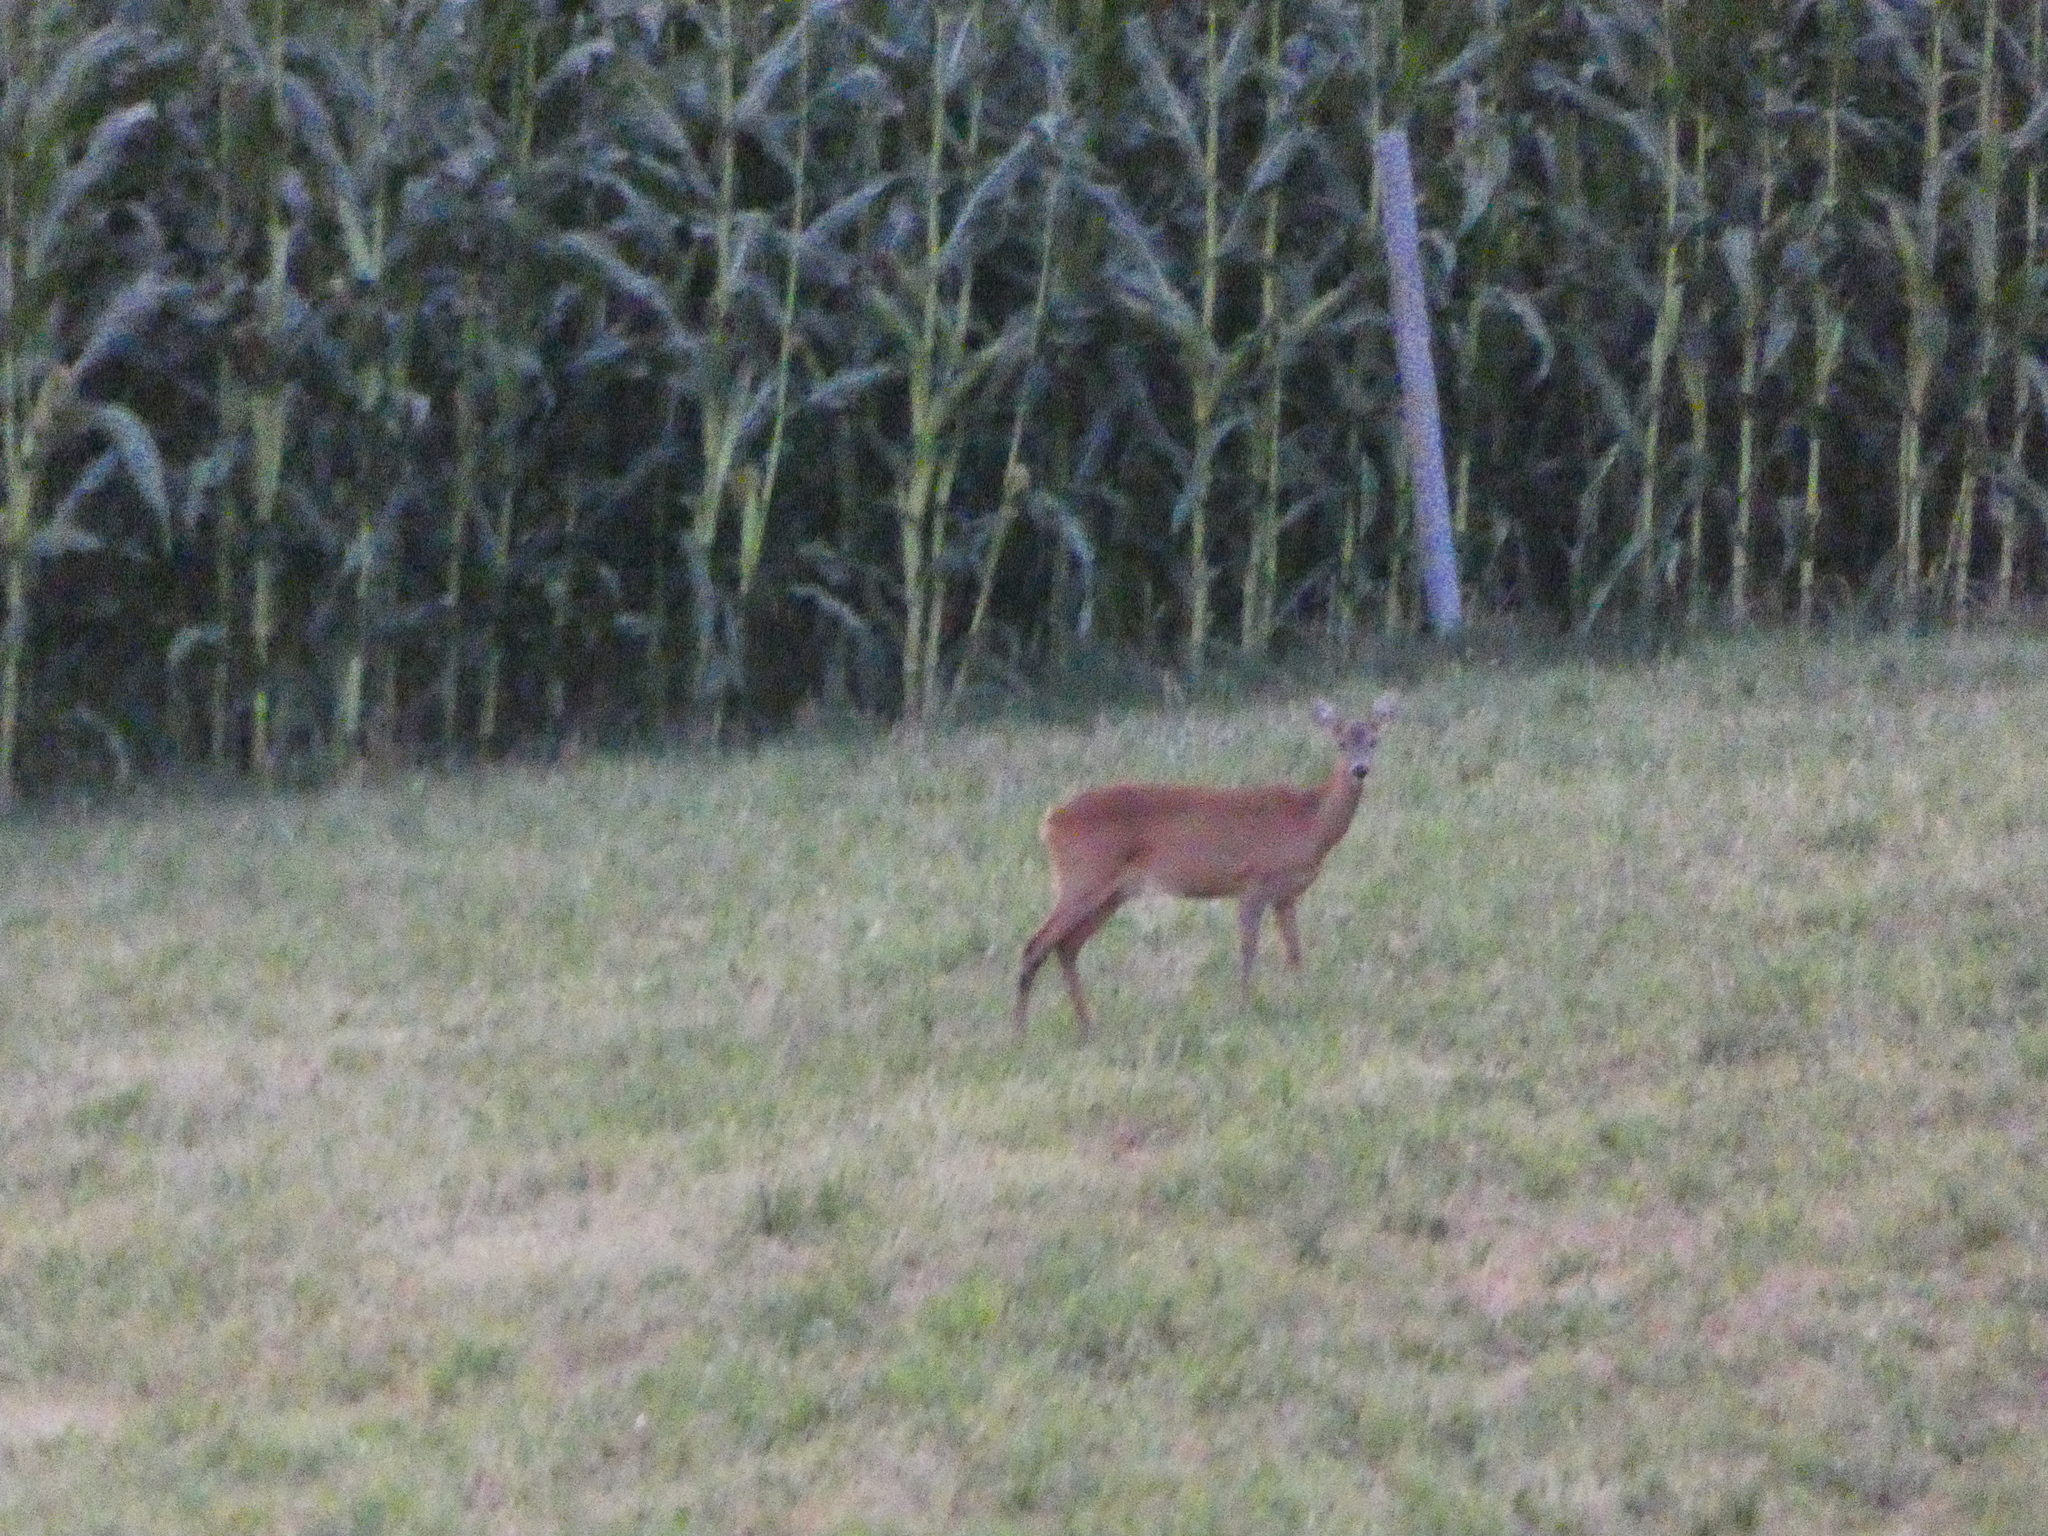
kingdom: Animalia
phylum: Chordata
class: Mammalia
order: Artiodactyla
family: Cervidae
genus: Capreolus
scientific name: Capreolus capreolus
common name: Western roe deer
